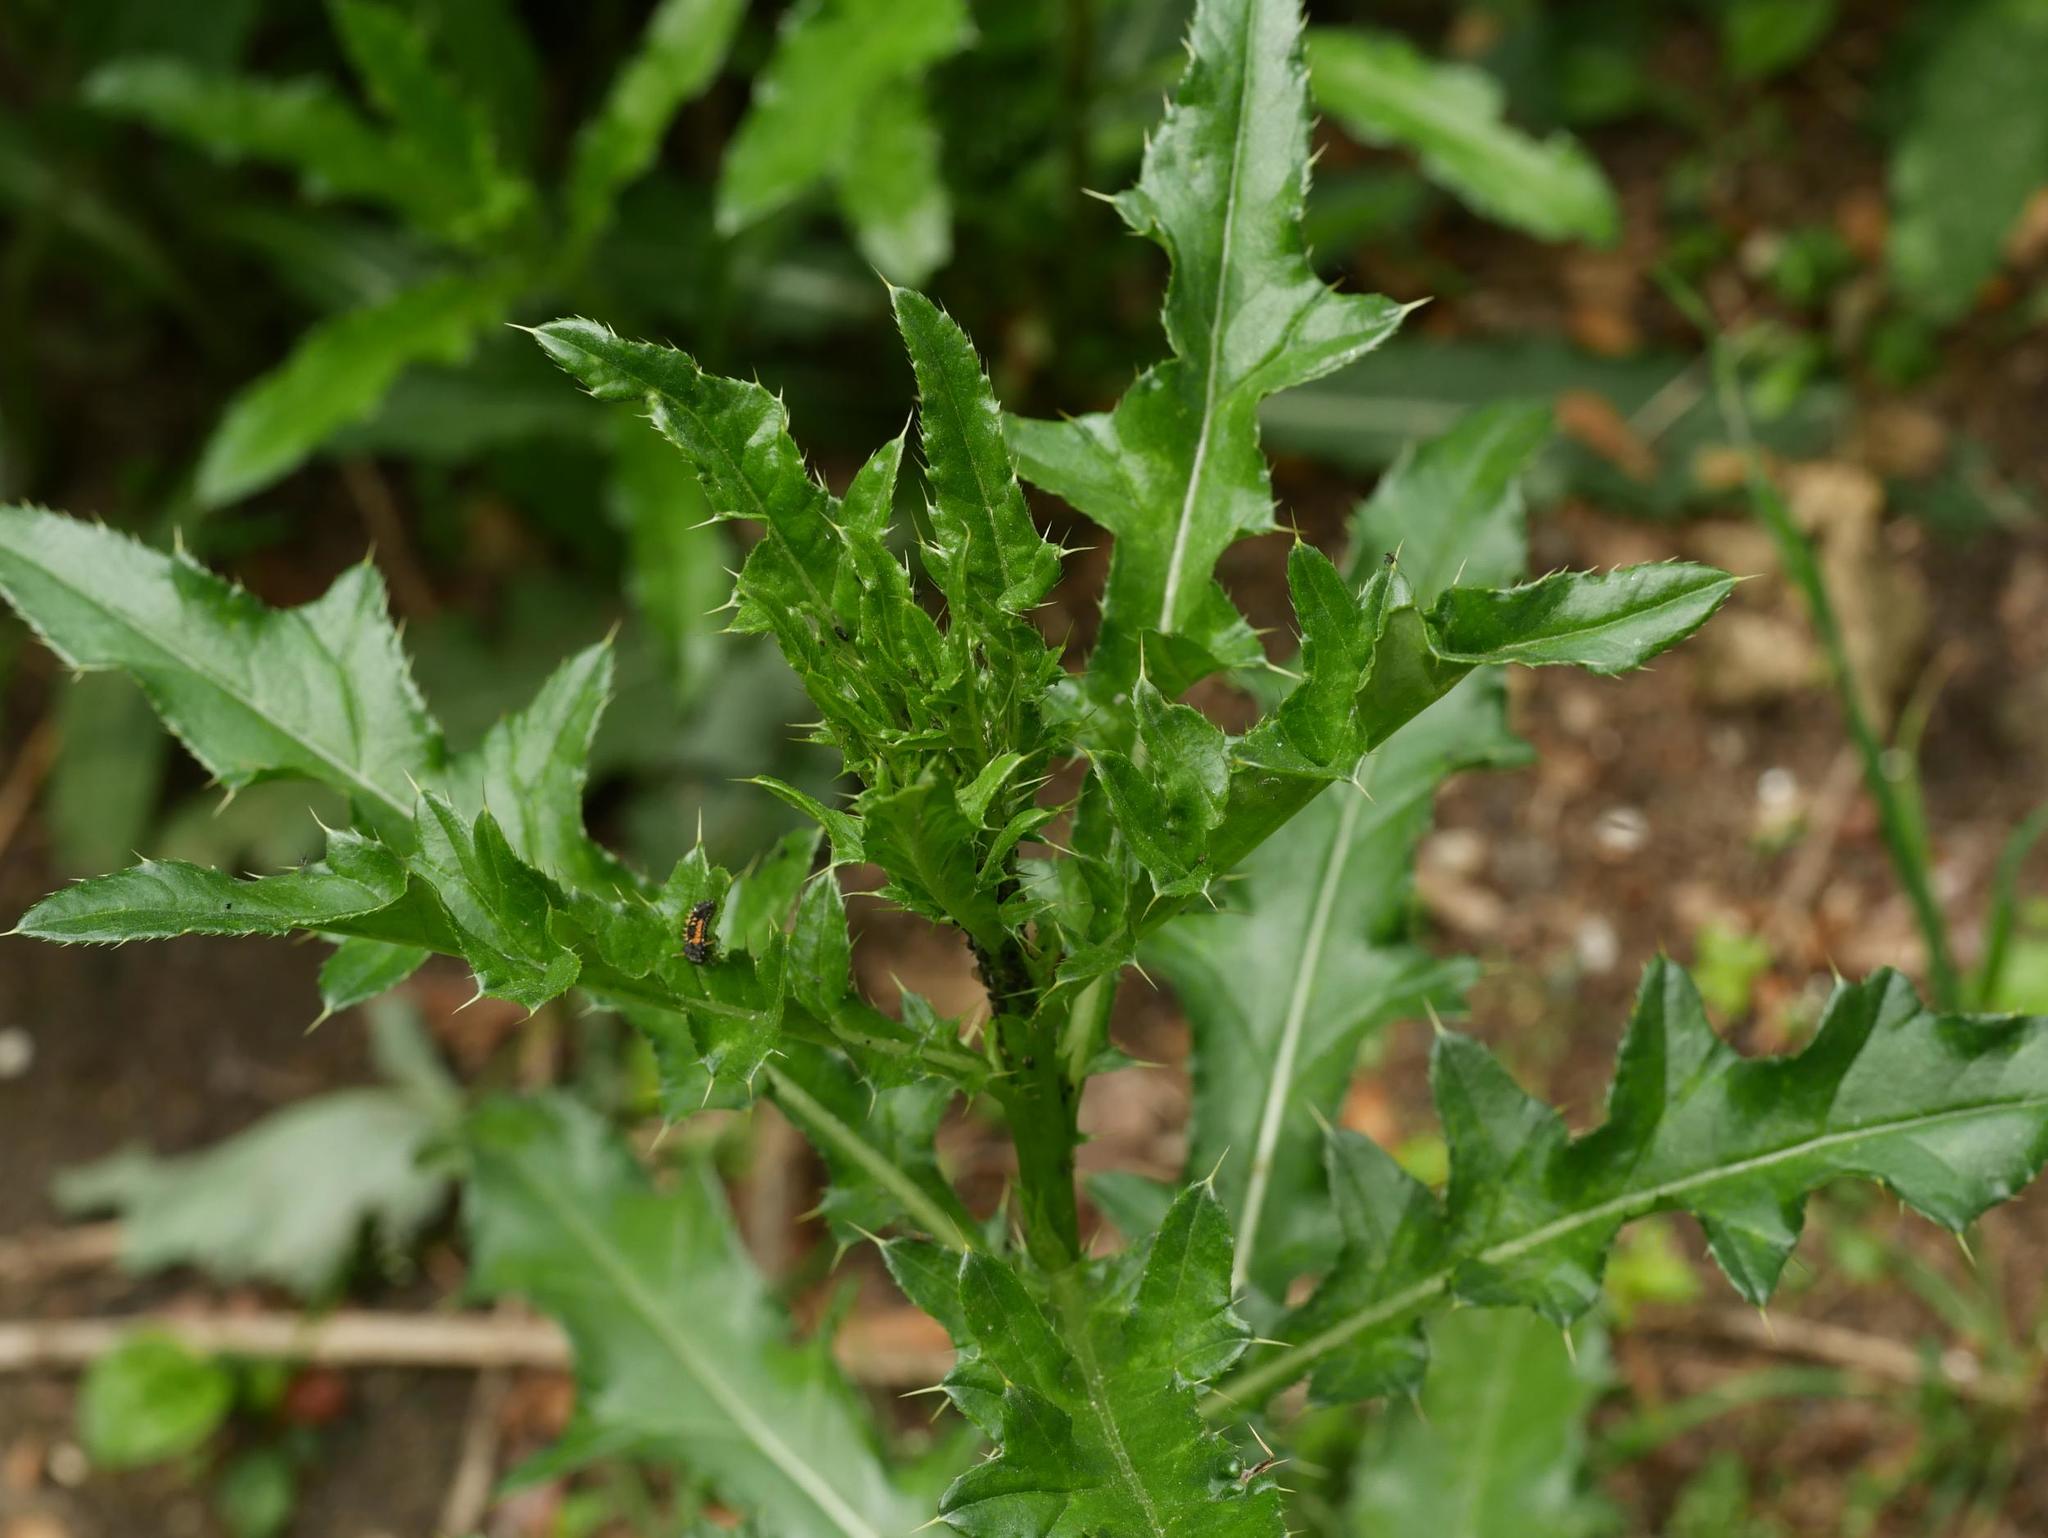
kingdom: Plantae
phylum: Tracheophyta
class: Magnoliopsida
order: Asterales
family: Asteraceae
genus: Cirsium
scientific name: Cirsium arvense
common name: Creeping thistle
